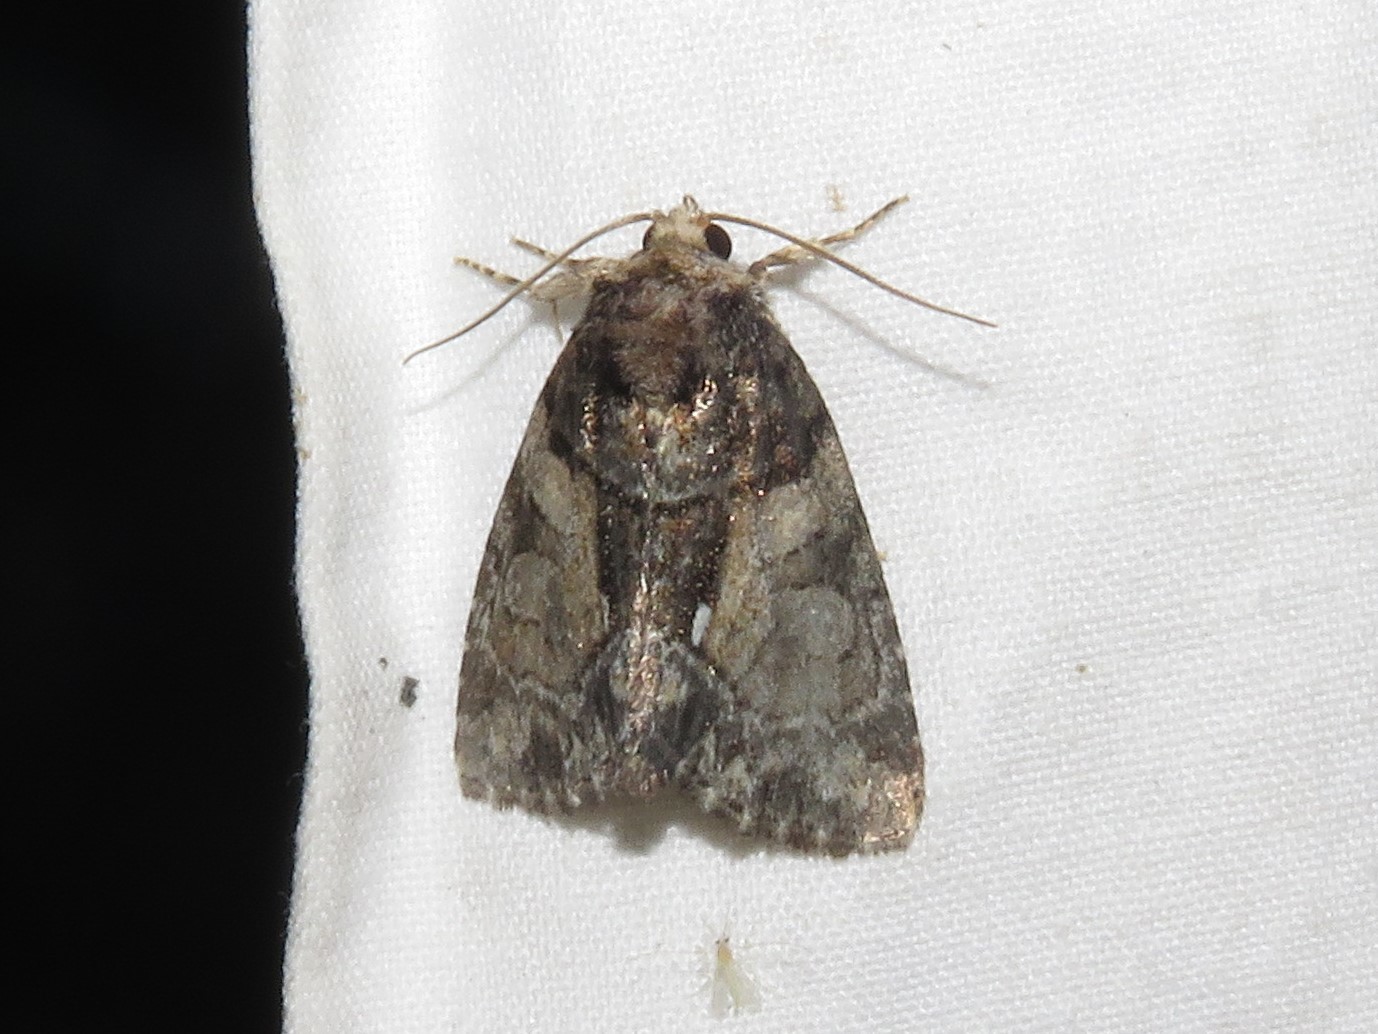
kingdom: Animalia
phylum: Arthropoda
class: Insecta
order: Lepidoptera
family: Noctuidae
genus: Chytonix
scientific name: Chytonix palliatricula
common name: Cloaked marvel
